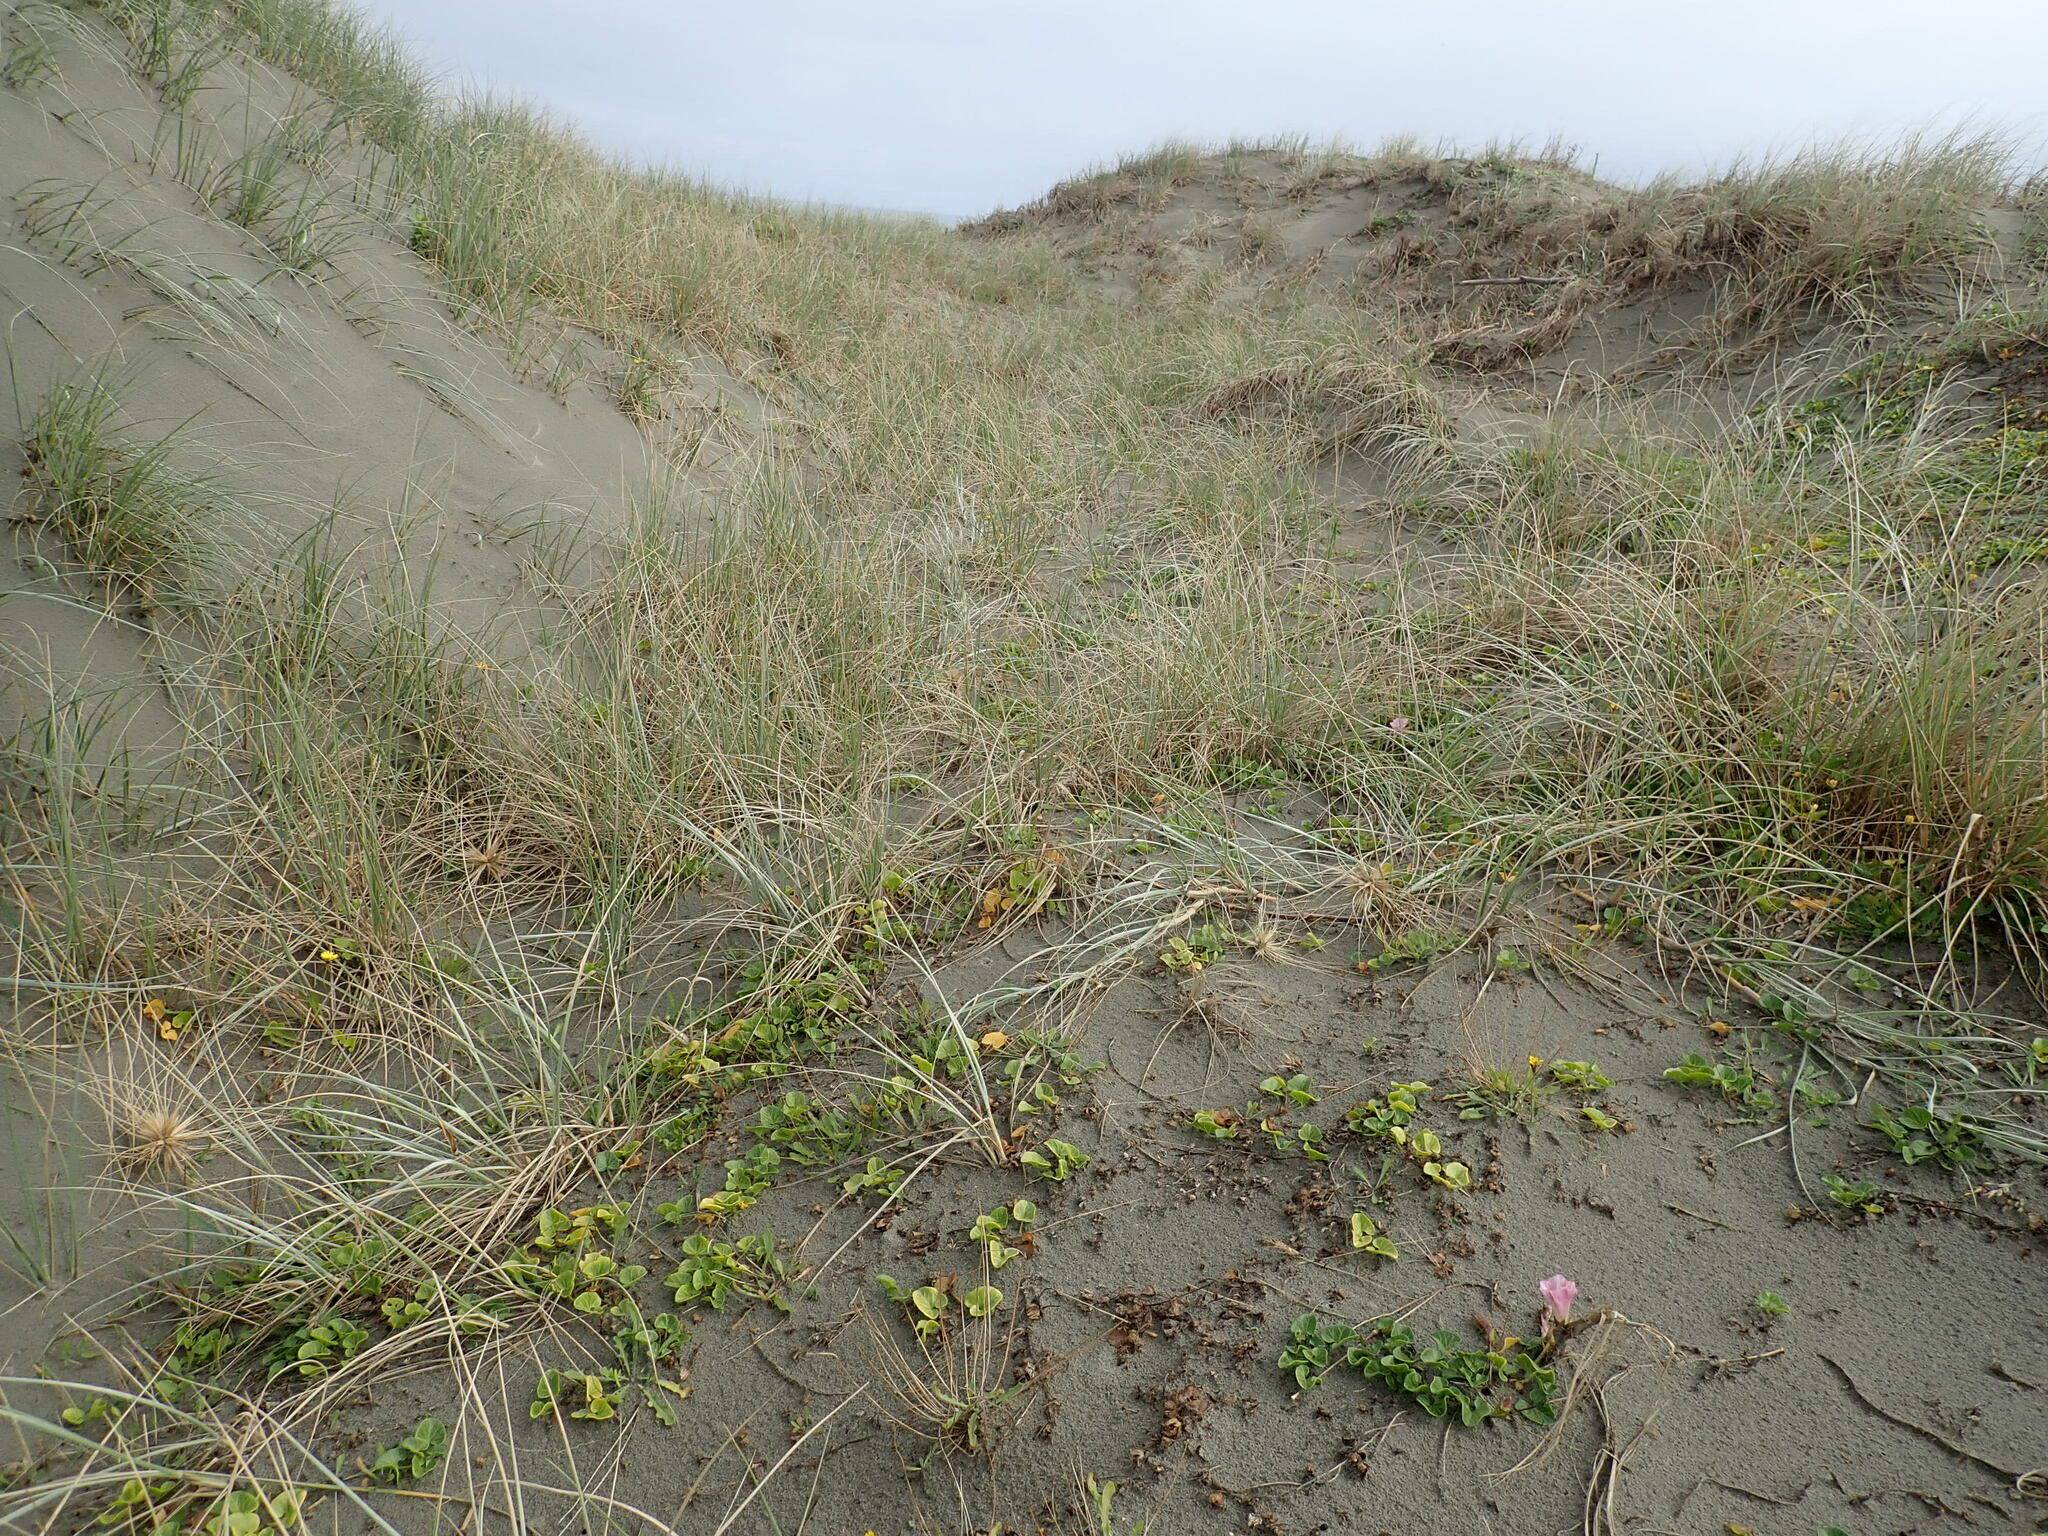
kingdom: Plantae
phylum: Tracheophyta
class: Magnoliopsida
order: Solanales
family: Convolvulaceae
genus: Calystegia
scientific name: Calystegia soldanella
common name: Sea bindweed
